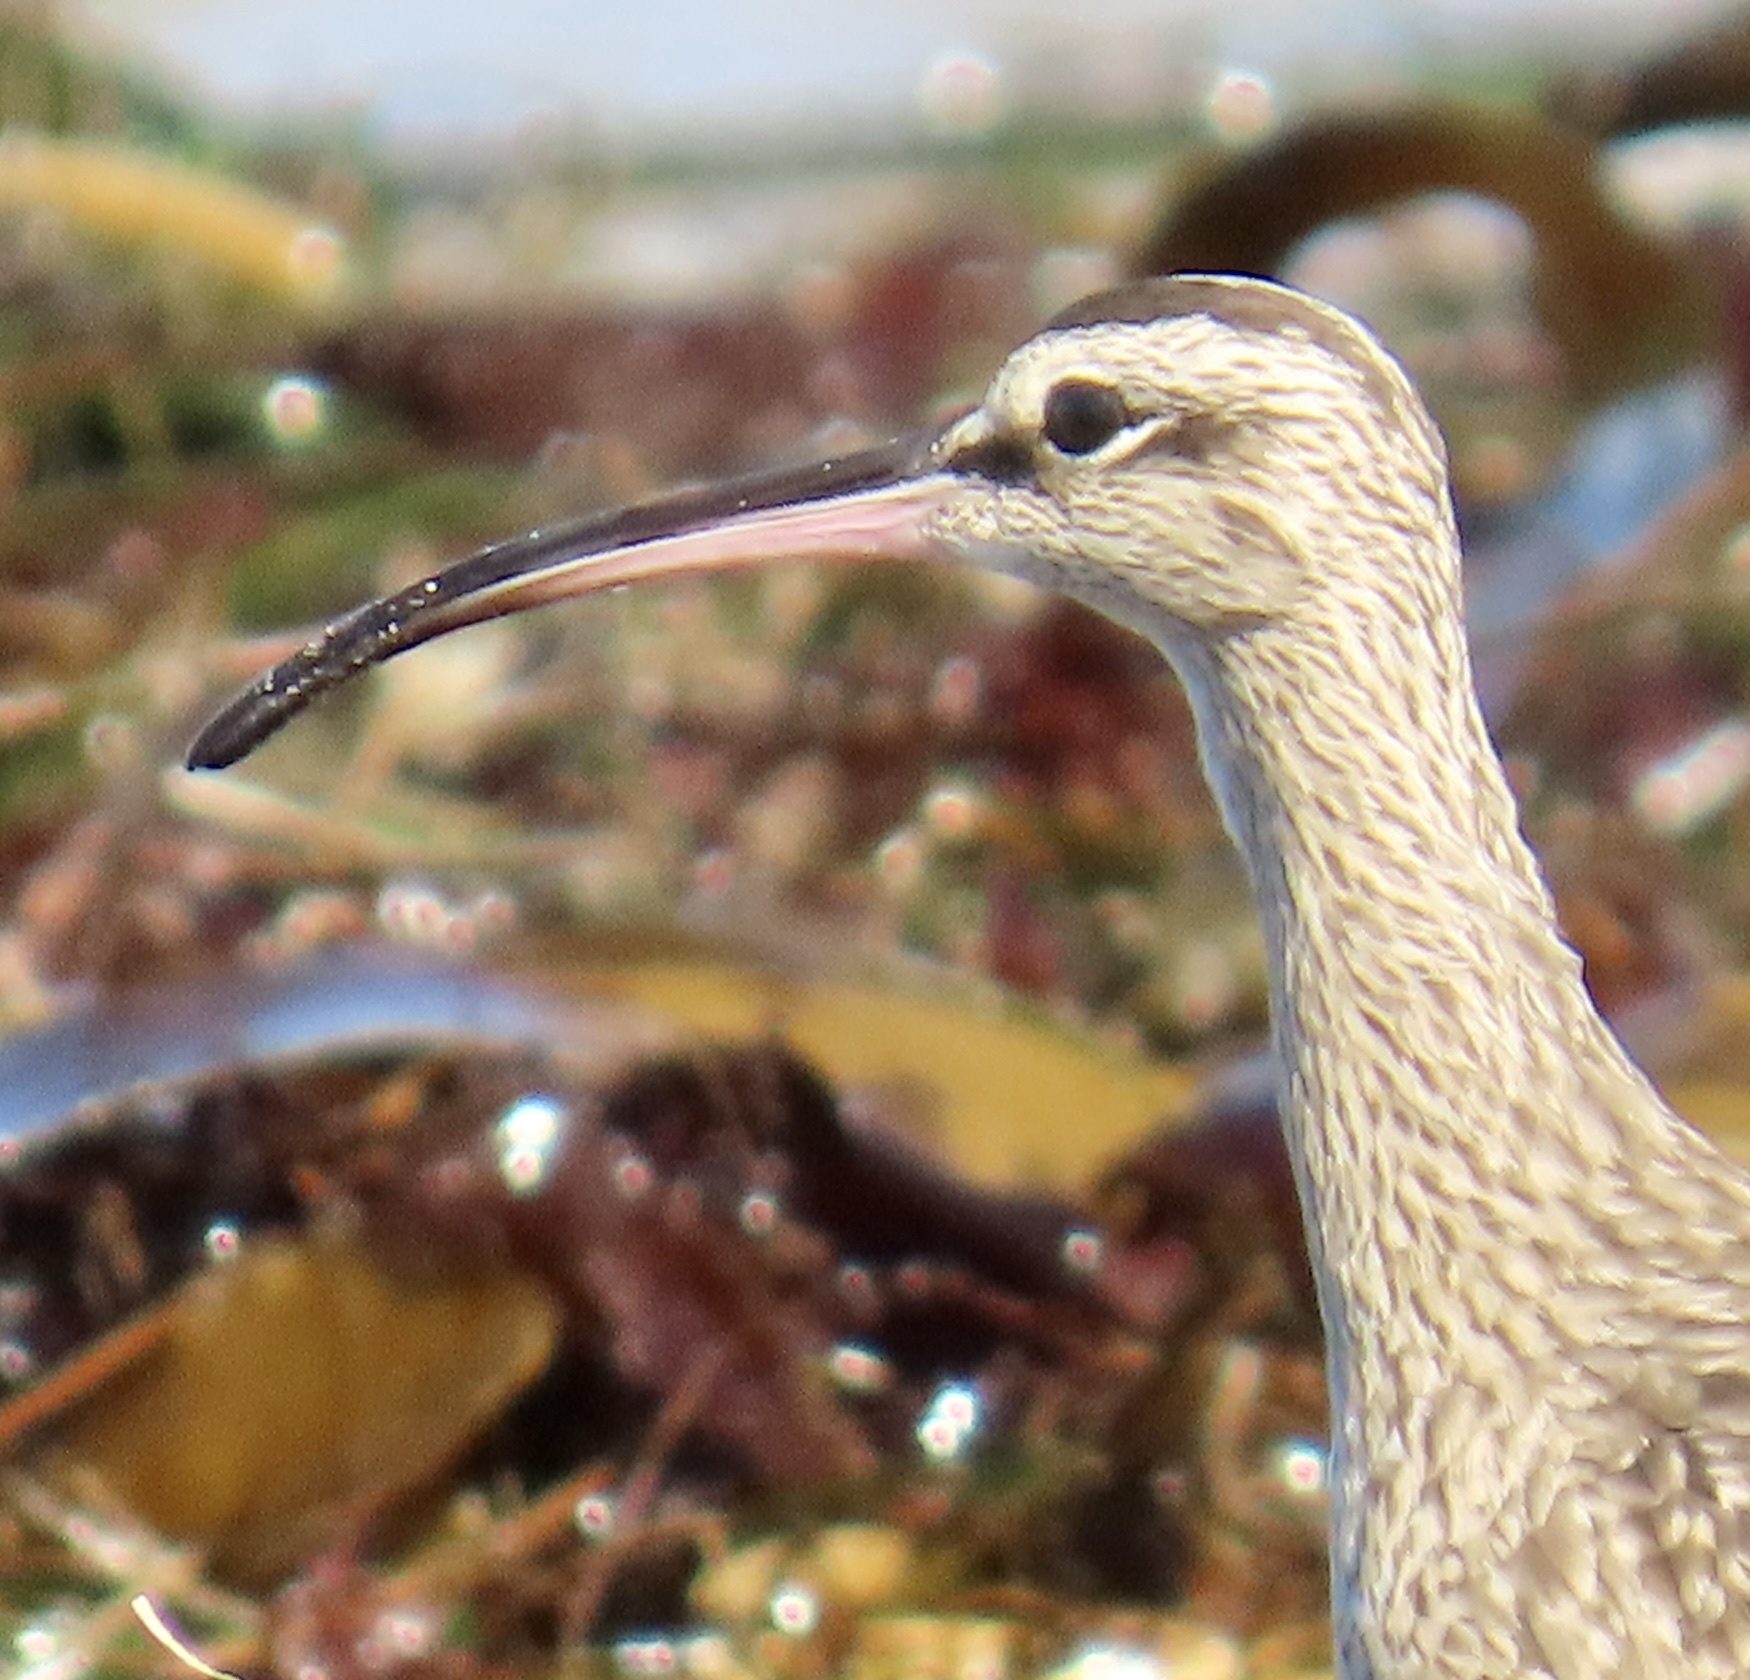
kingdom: Animalia
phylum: Chordata
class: Aves
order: Charadriiformes
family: Scolopacidae
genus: Numenius
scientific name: Numenius phaeopus
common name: Whimbrel
